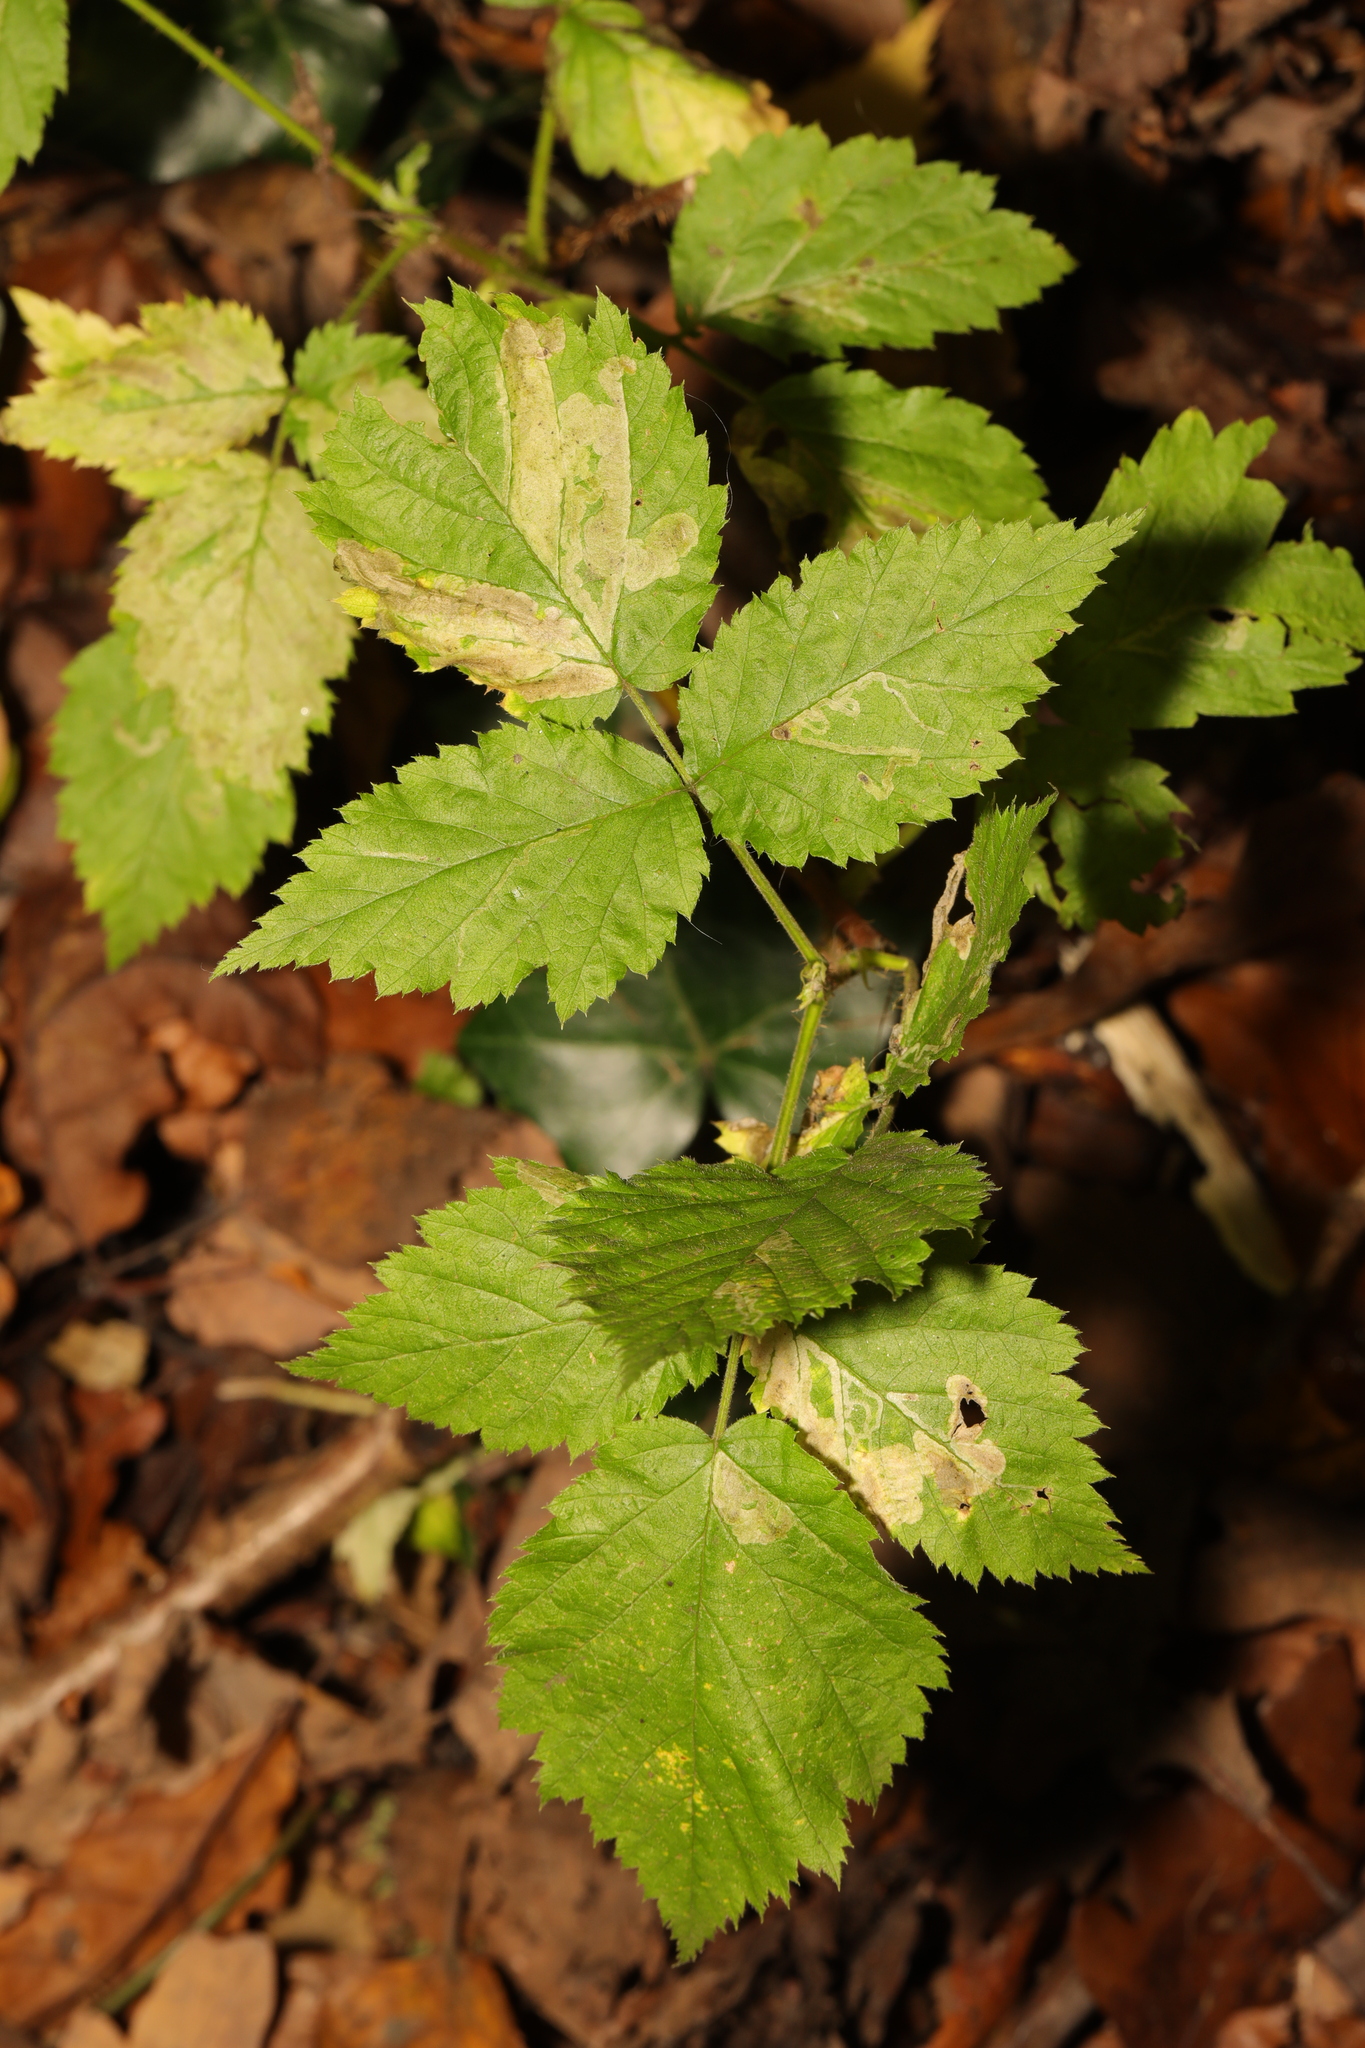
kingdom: Plantae
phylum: Tracheophyta
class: Magnoliopsida
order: Rosales
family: Rosaceae
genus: Rubus
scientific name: Rubus idaeus
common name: Raspberry
